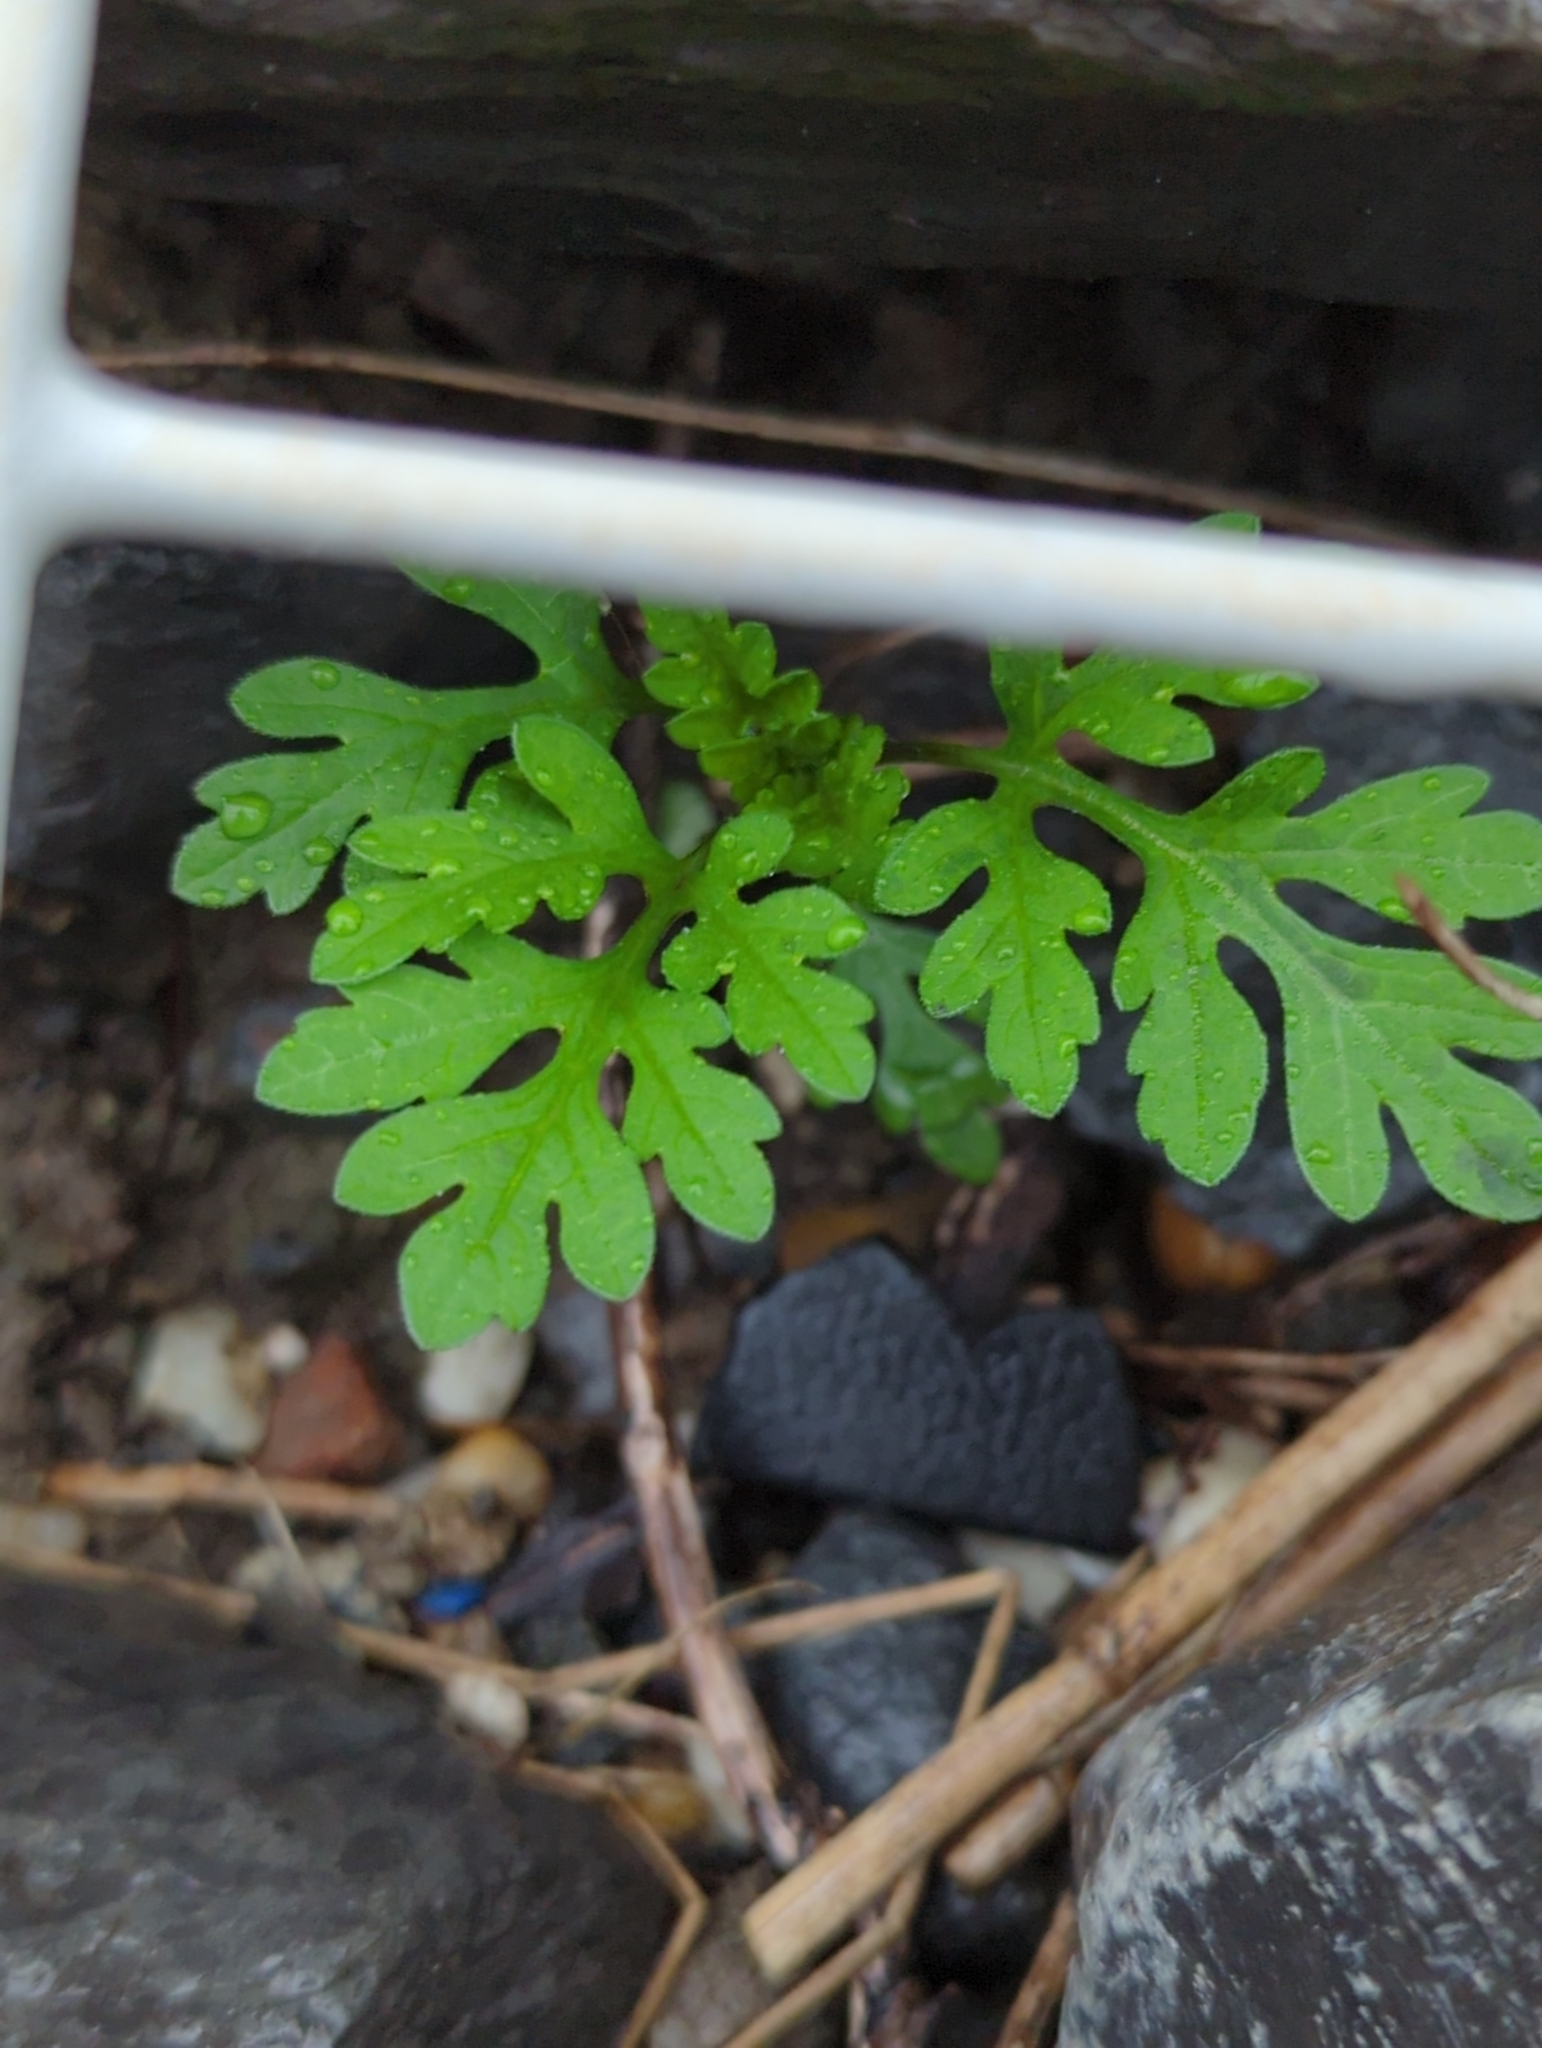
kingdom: Plantae
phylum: Tracheophyta
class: Magnoliopsida
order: Asterales
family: Asteraceae
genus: Ambrosia
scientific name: Ambrosia artemisiifolia
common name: Annual ragweed
